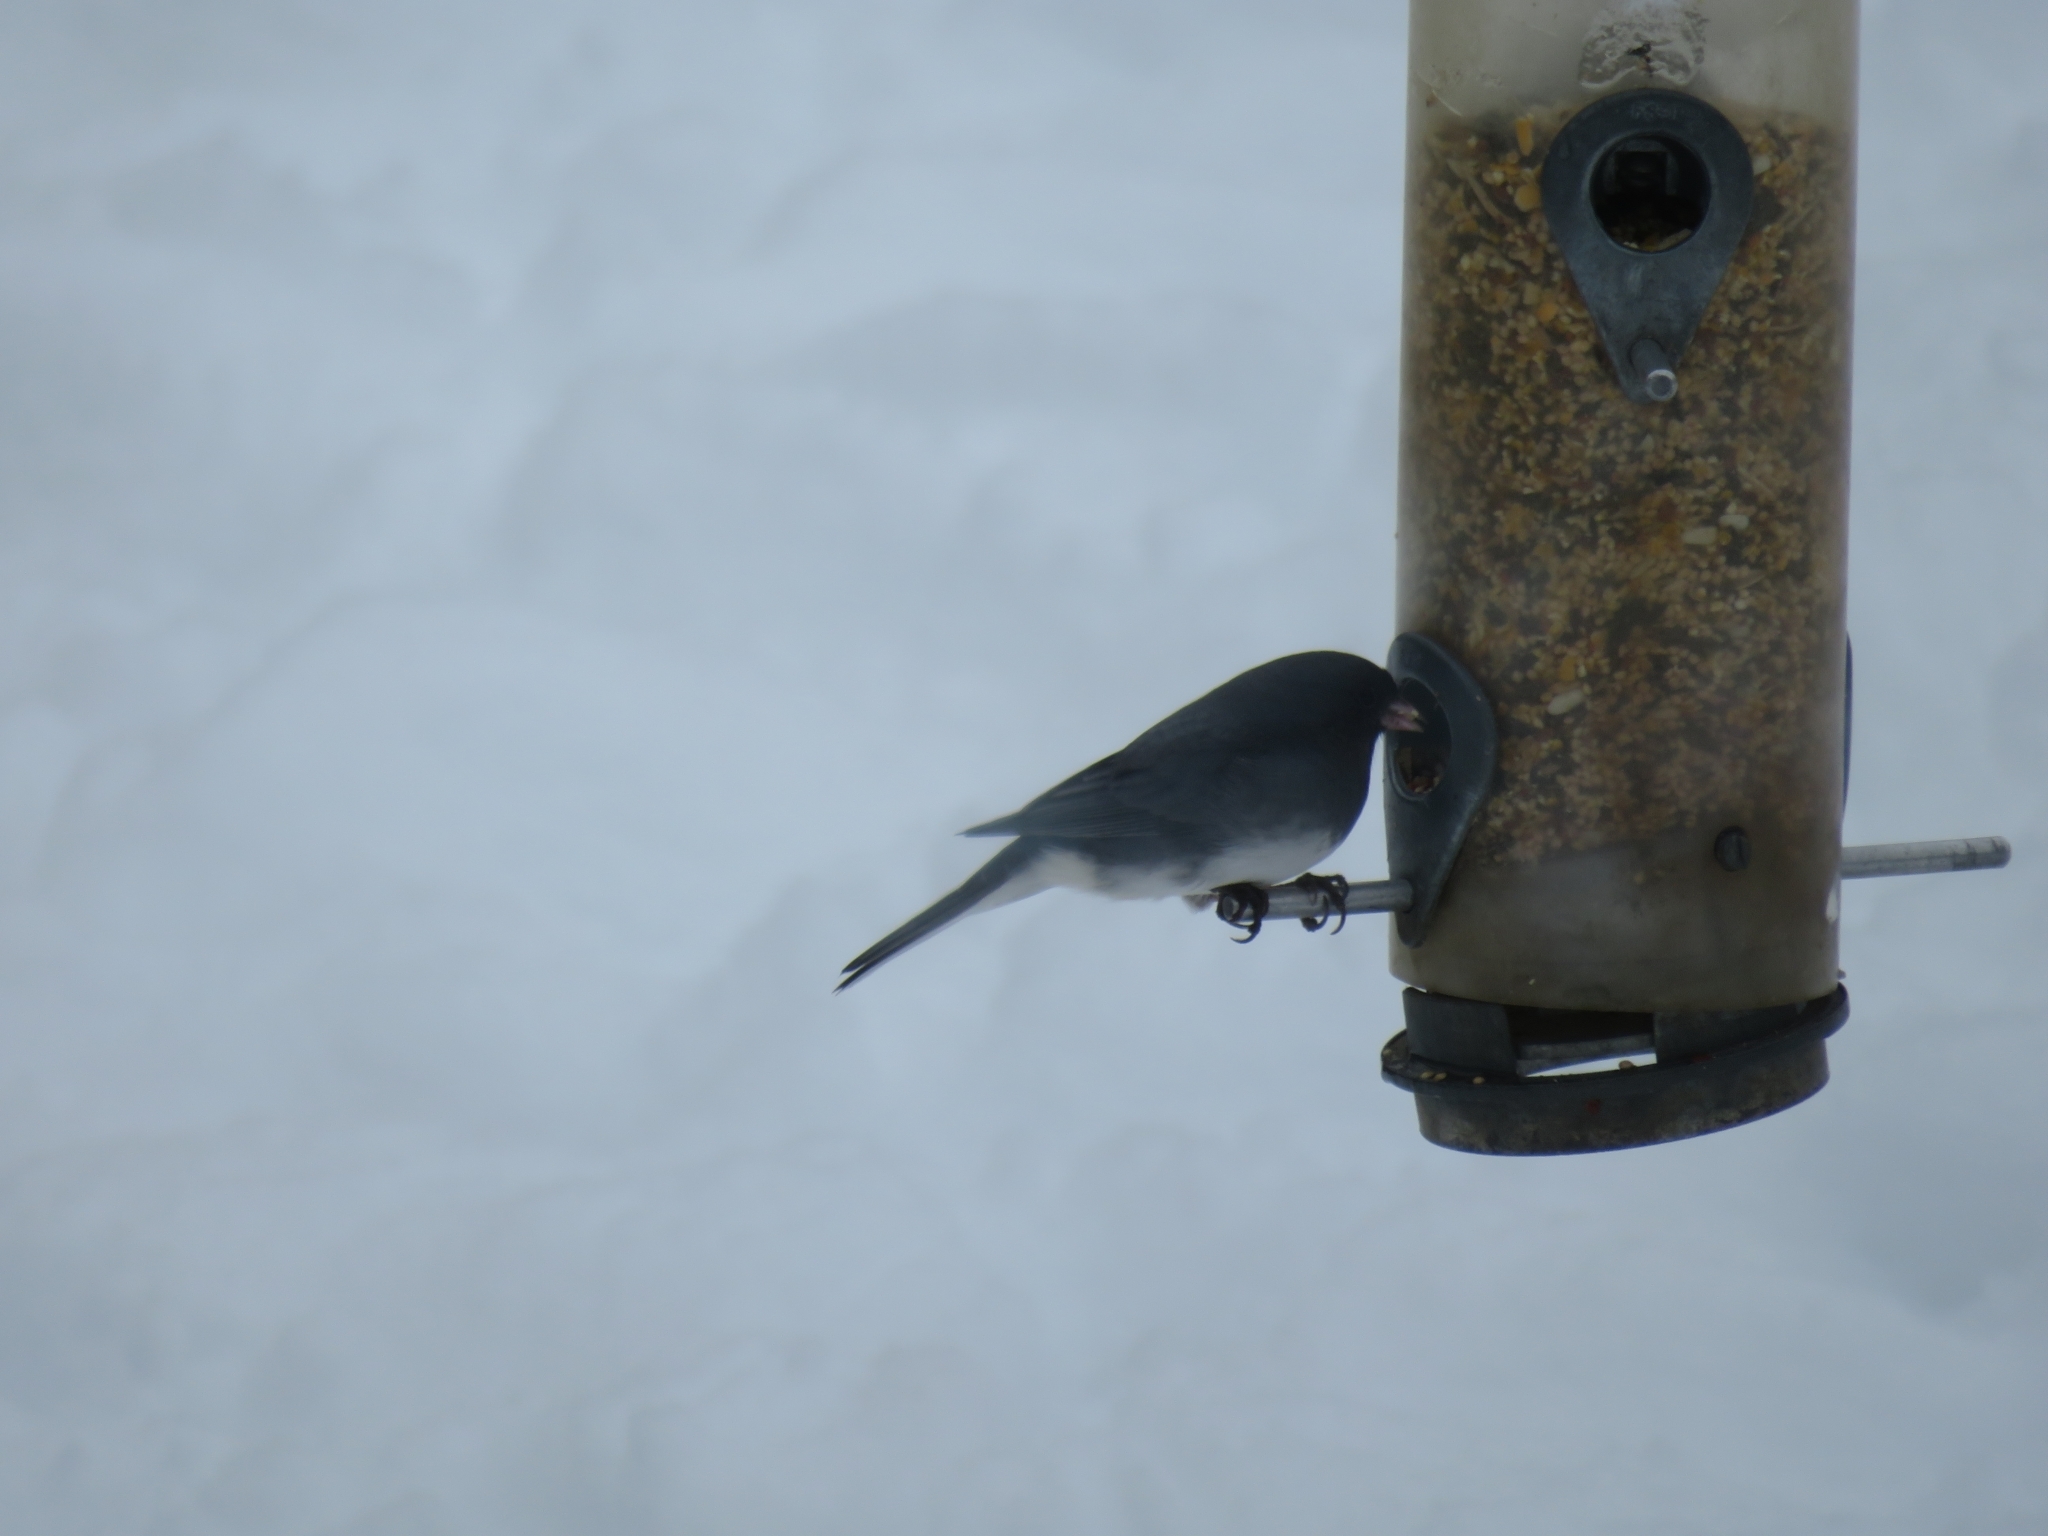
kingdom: Animalia
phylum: Chordata
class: Aves
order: Passeriformes
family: Passerellidae
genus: Junco
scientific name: Junco hyemalis
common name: Dark-eyed junco
